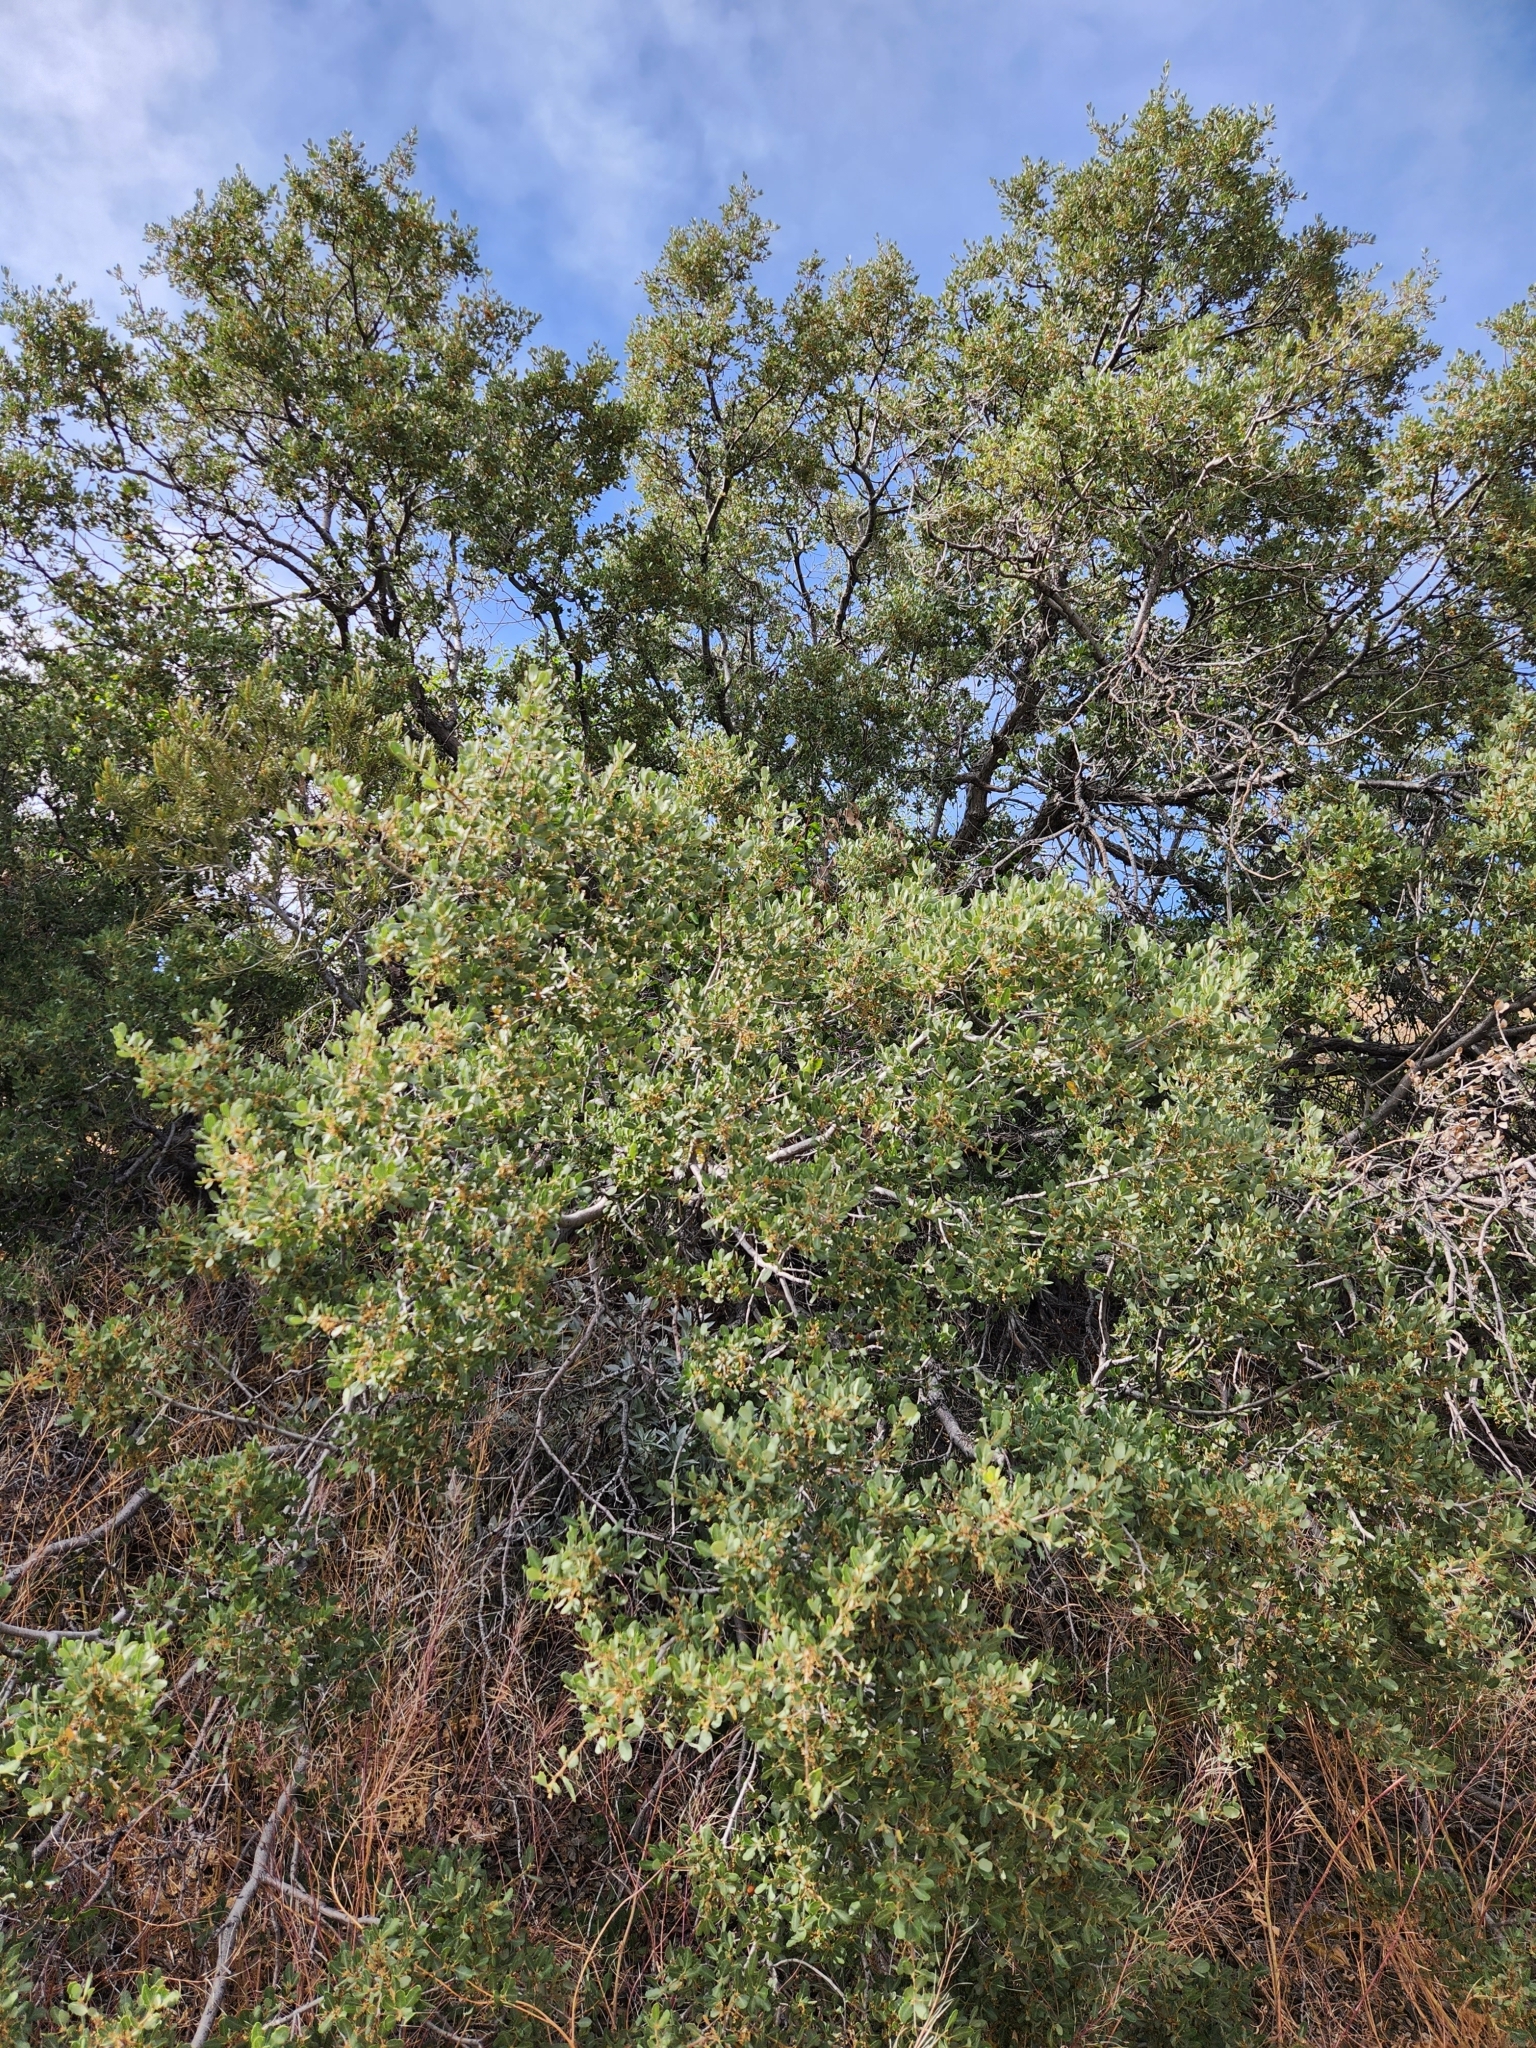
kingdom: Plantae
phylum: Tracheophyta
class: Magnoliopsida
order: Fagales
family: Fagaceae
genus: Quercus
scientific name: Quercus cornelius-mulleri
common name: Muller oak
